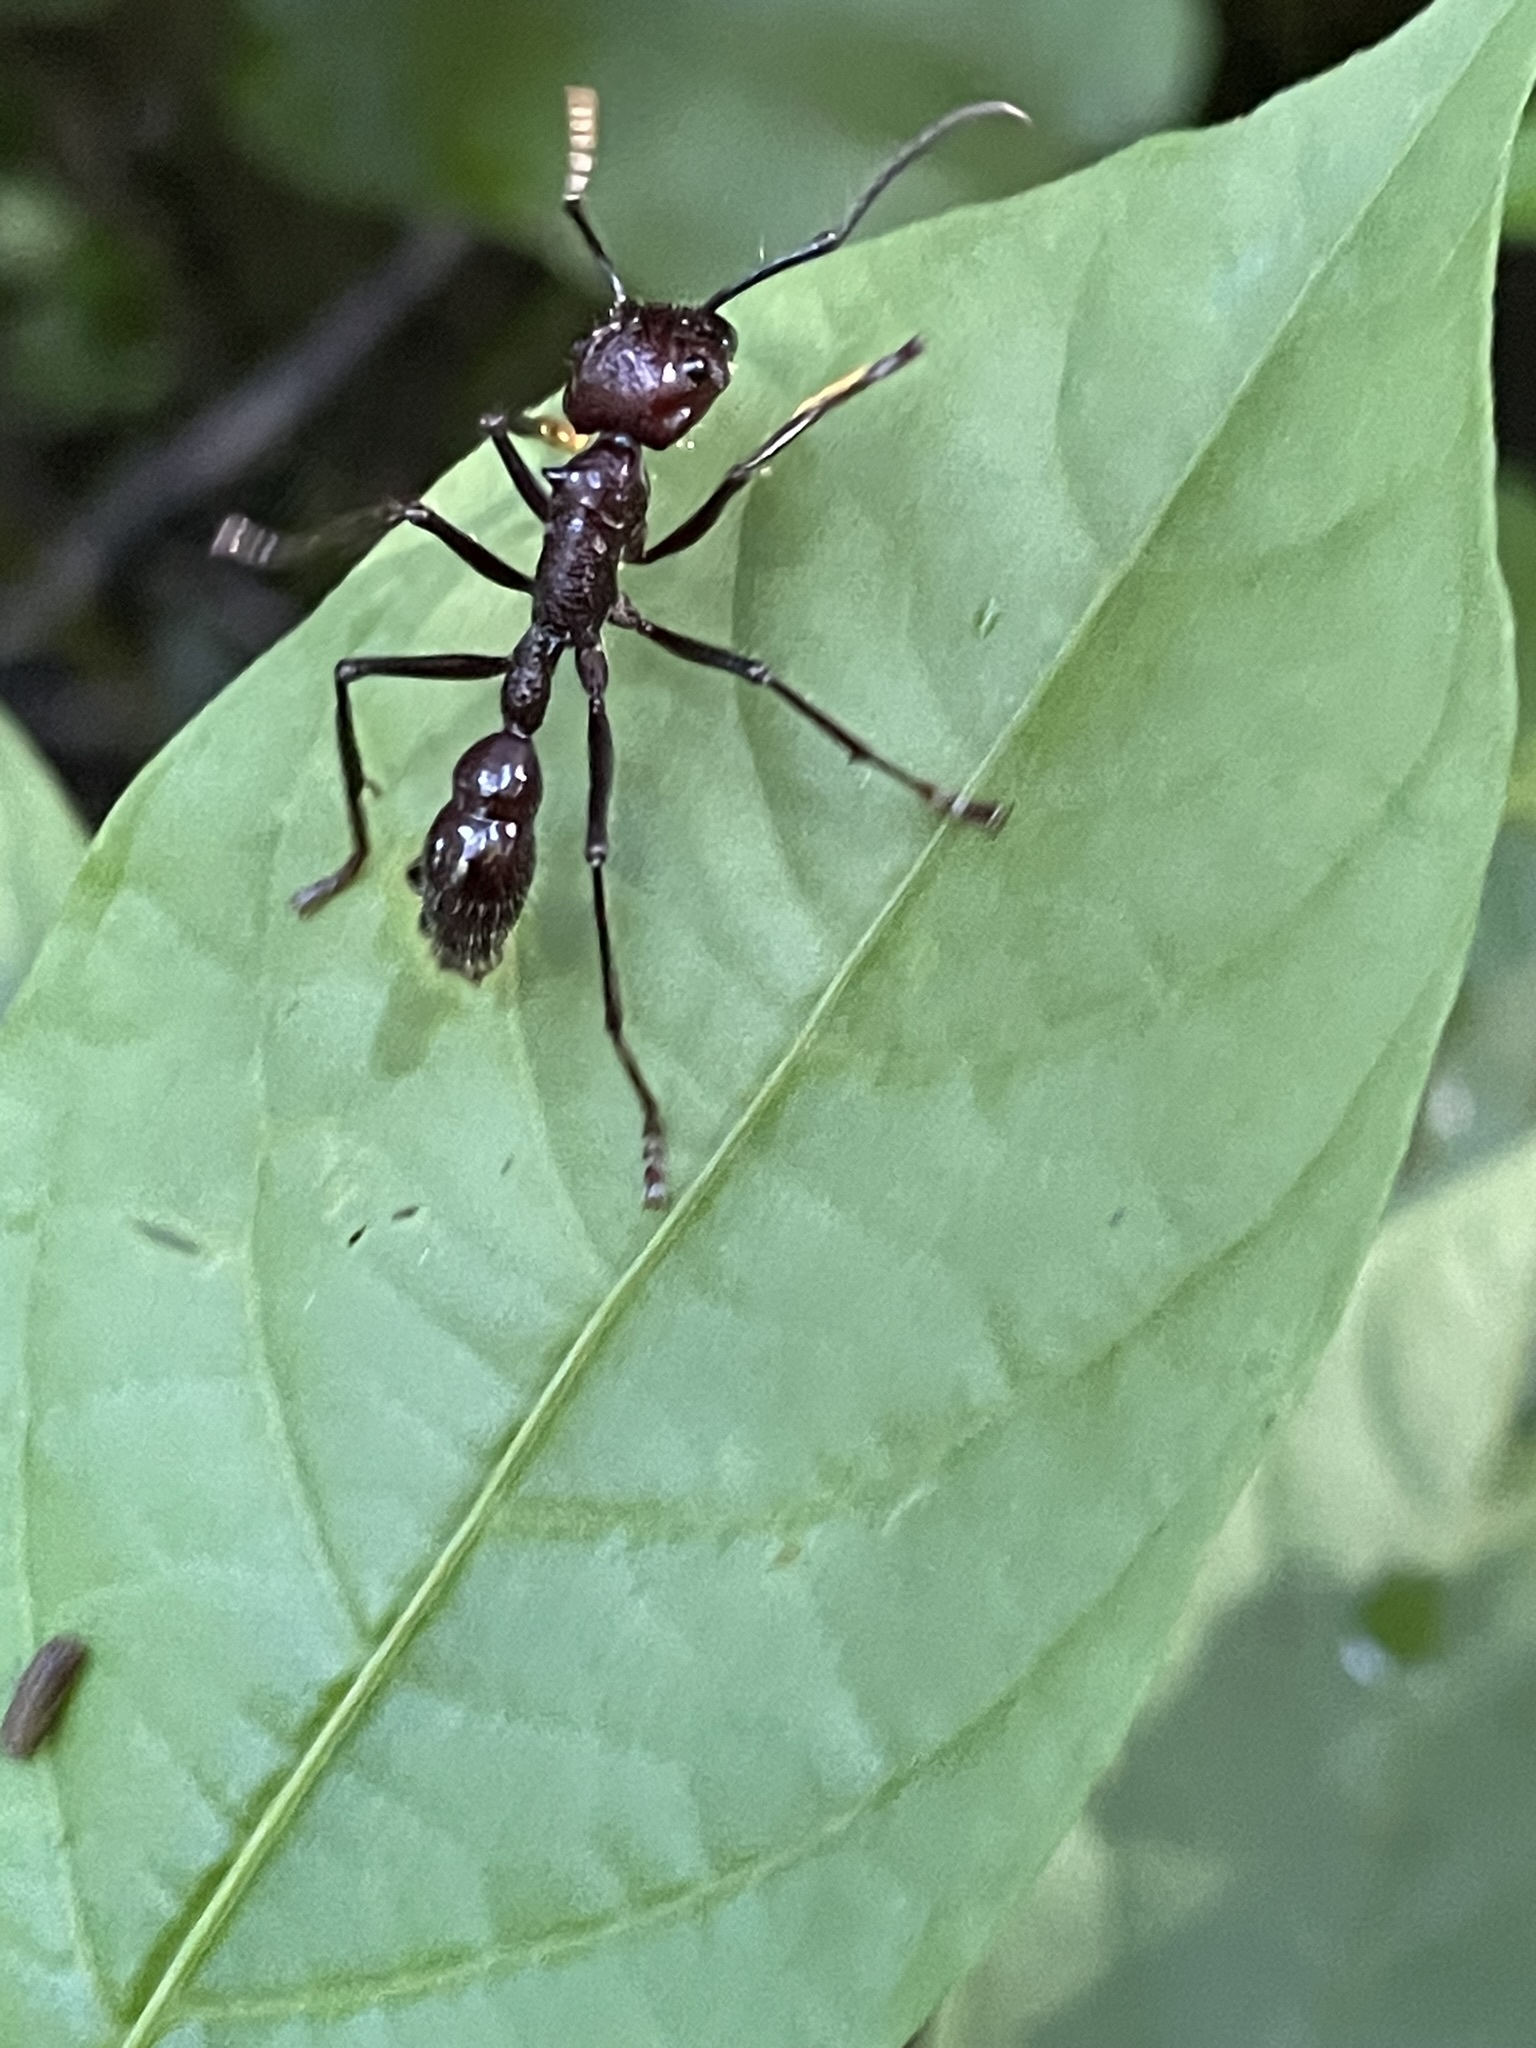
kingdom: Animalia
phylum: Arthropoda
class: Insecta
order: Hymenoptera
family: Formicidae
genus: Paraponera
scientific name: Paraponera clavata
